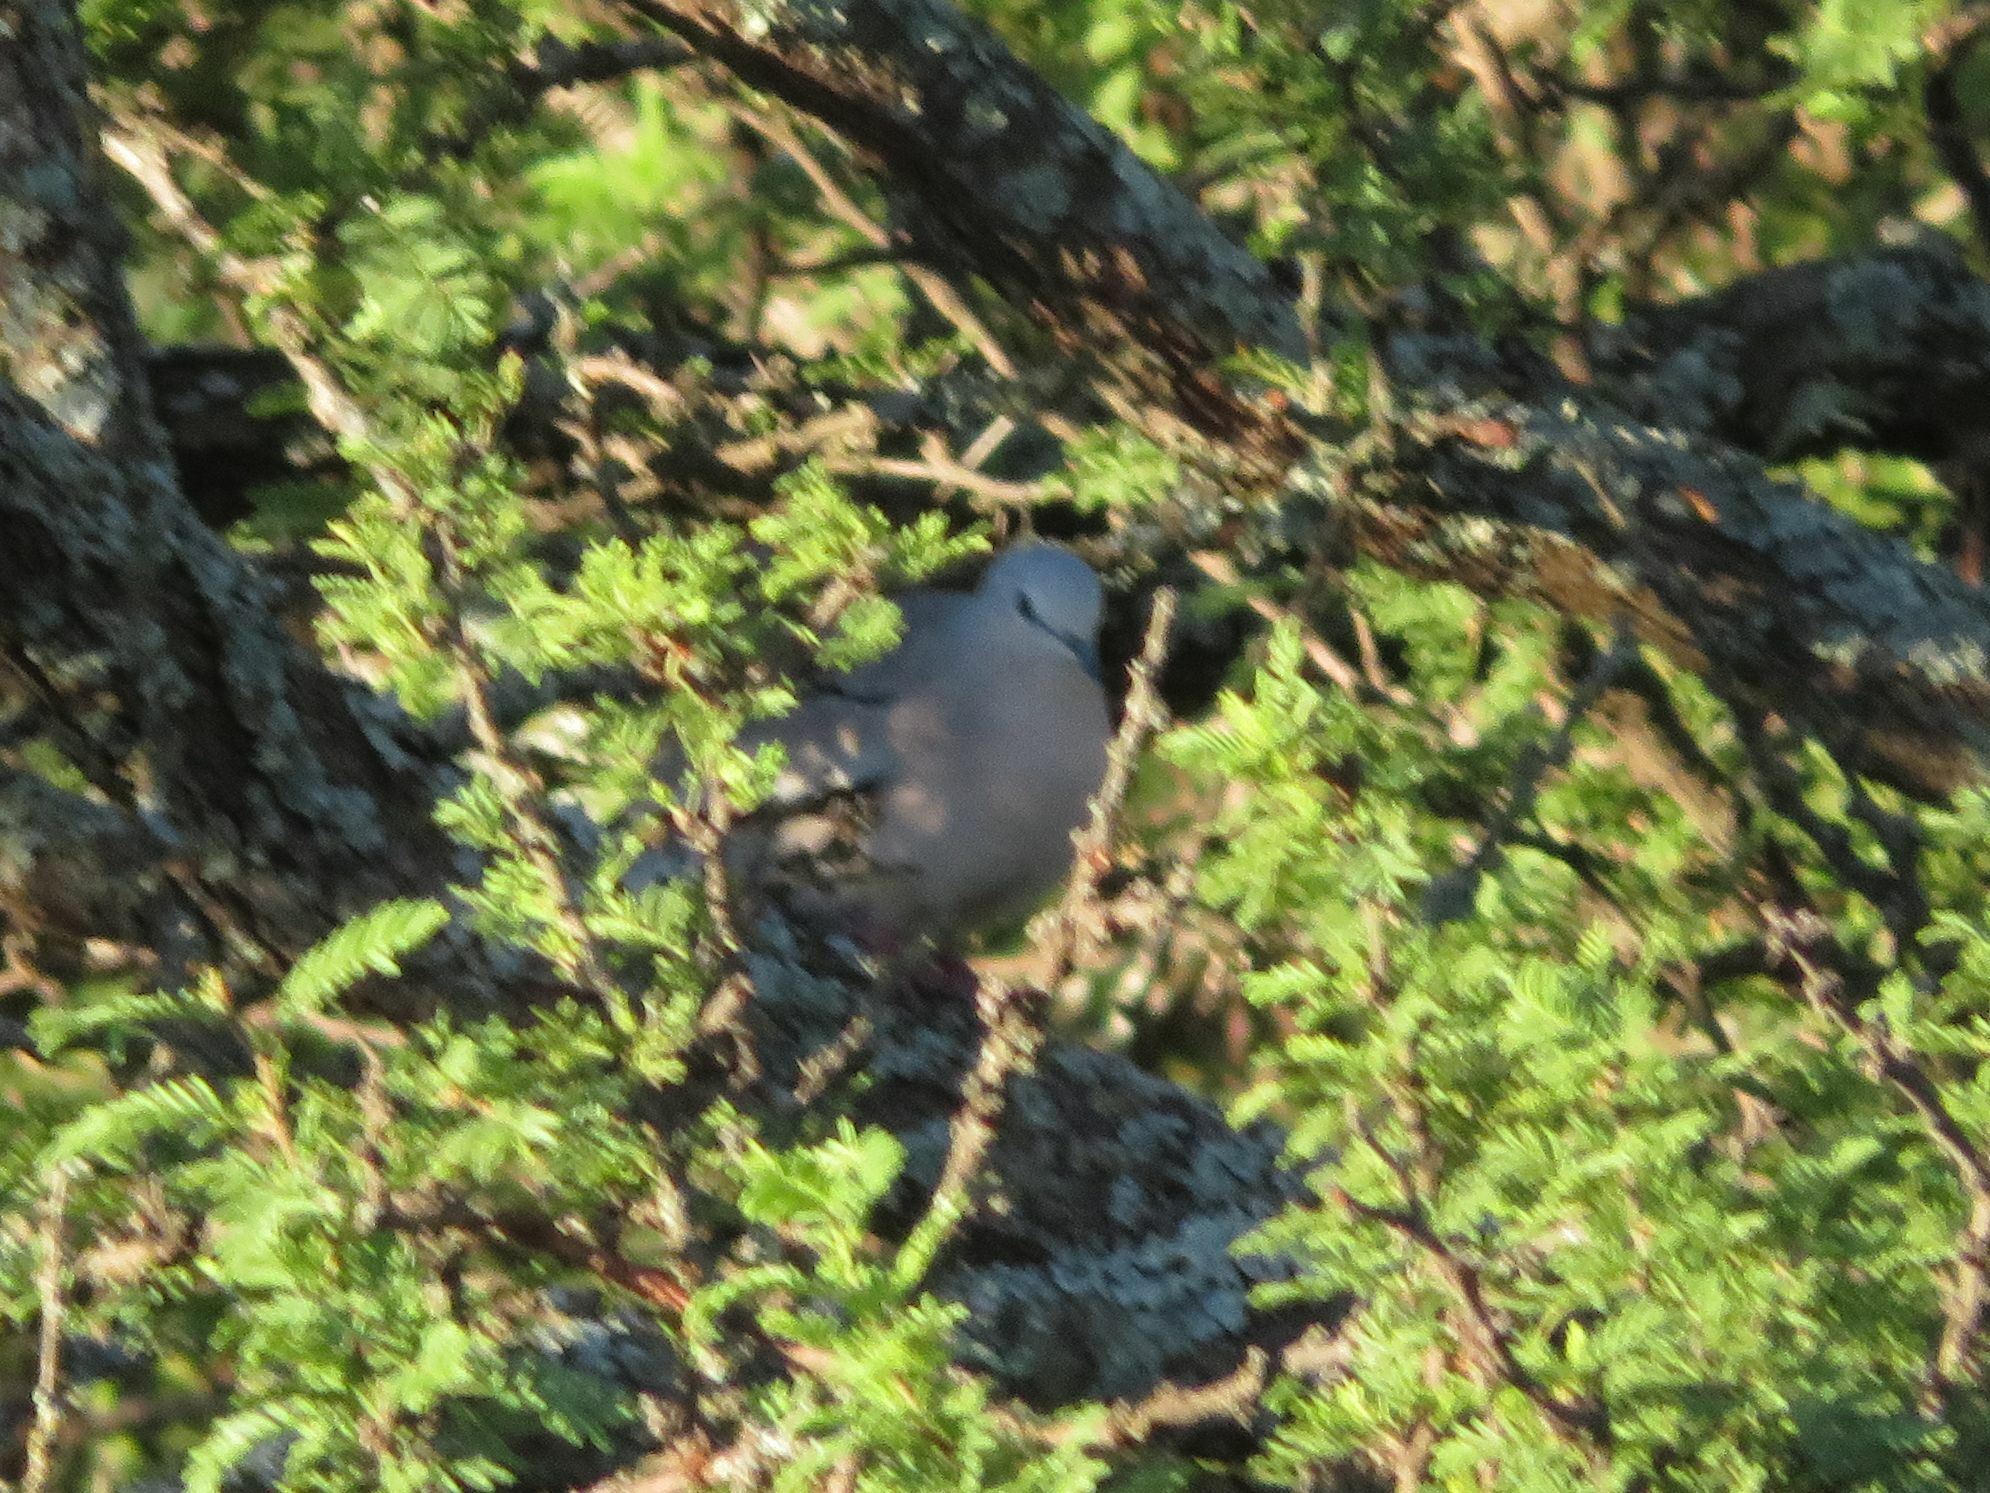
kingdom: Animalia
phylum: Chordata
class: Aves
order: Columbiformes
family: Columbidae
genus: Columbina
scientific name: Columbina picui
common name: Picui ground dove
